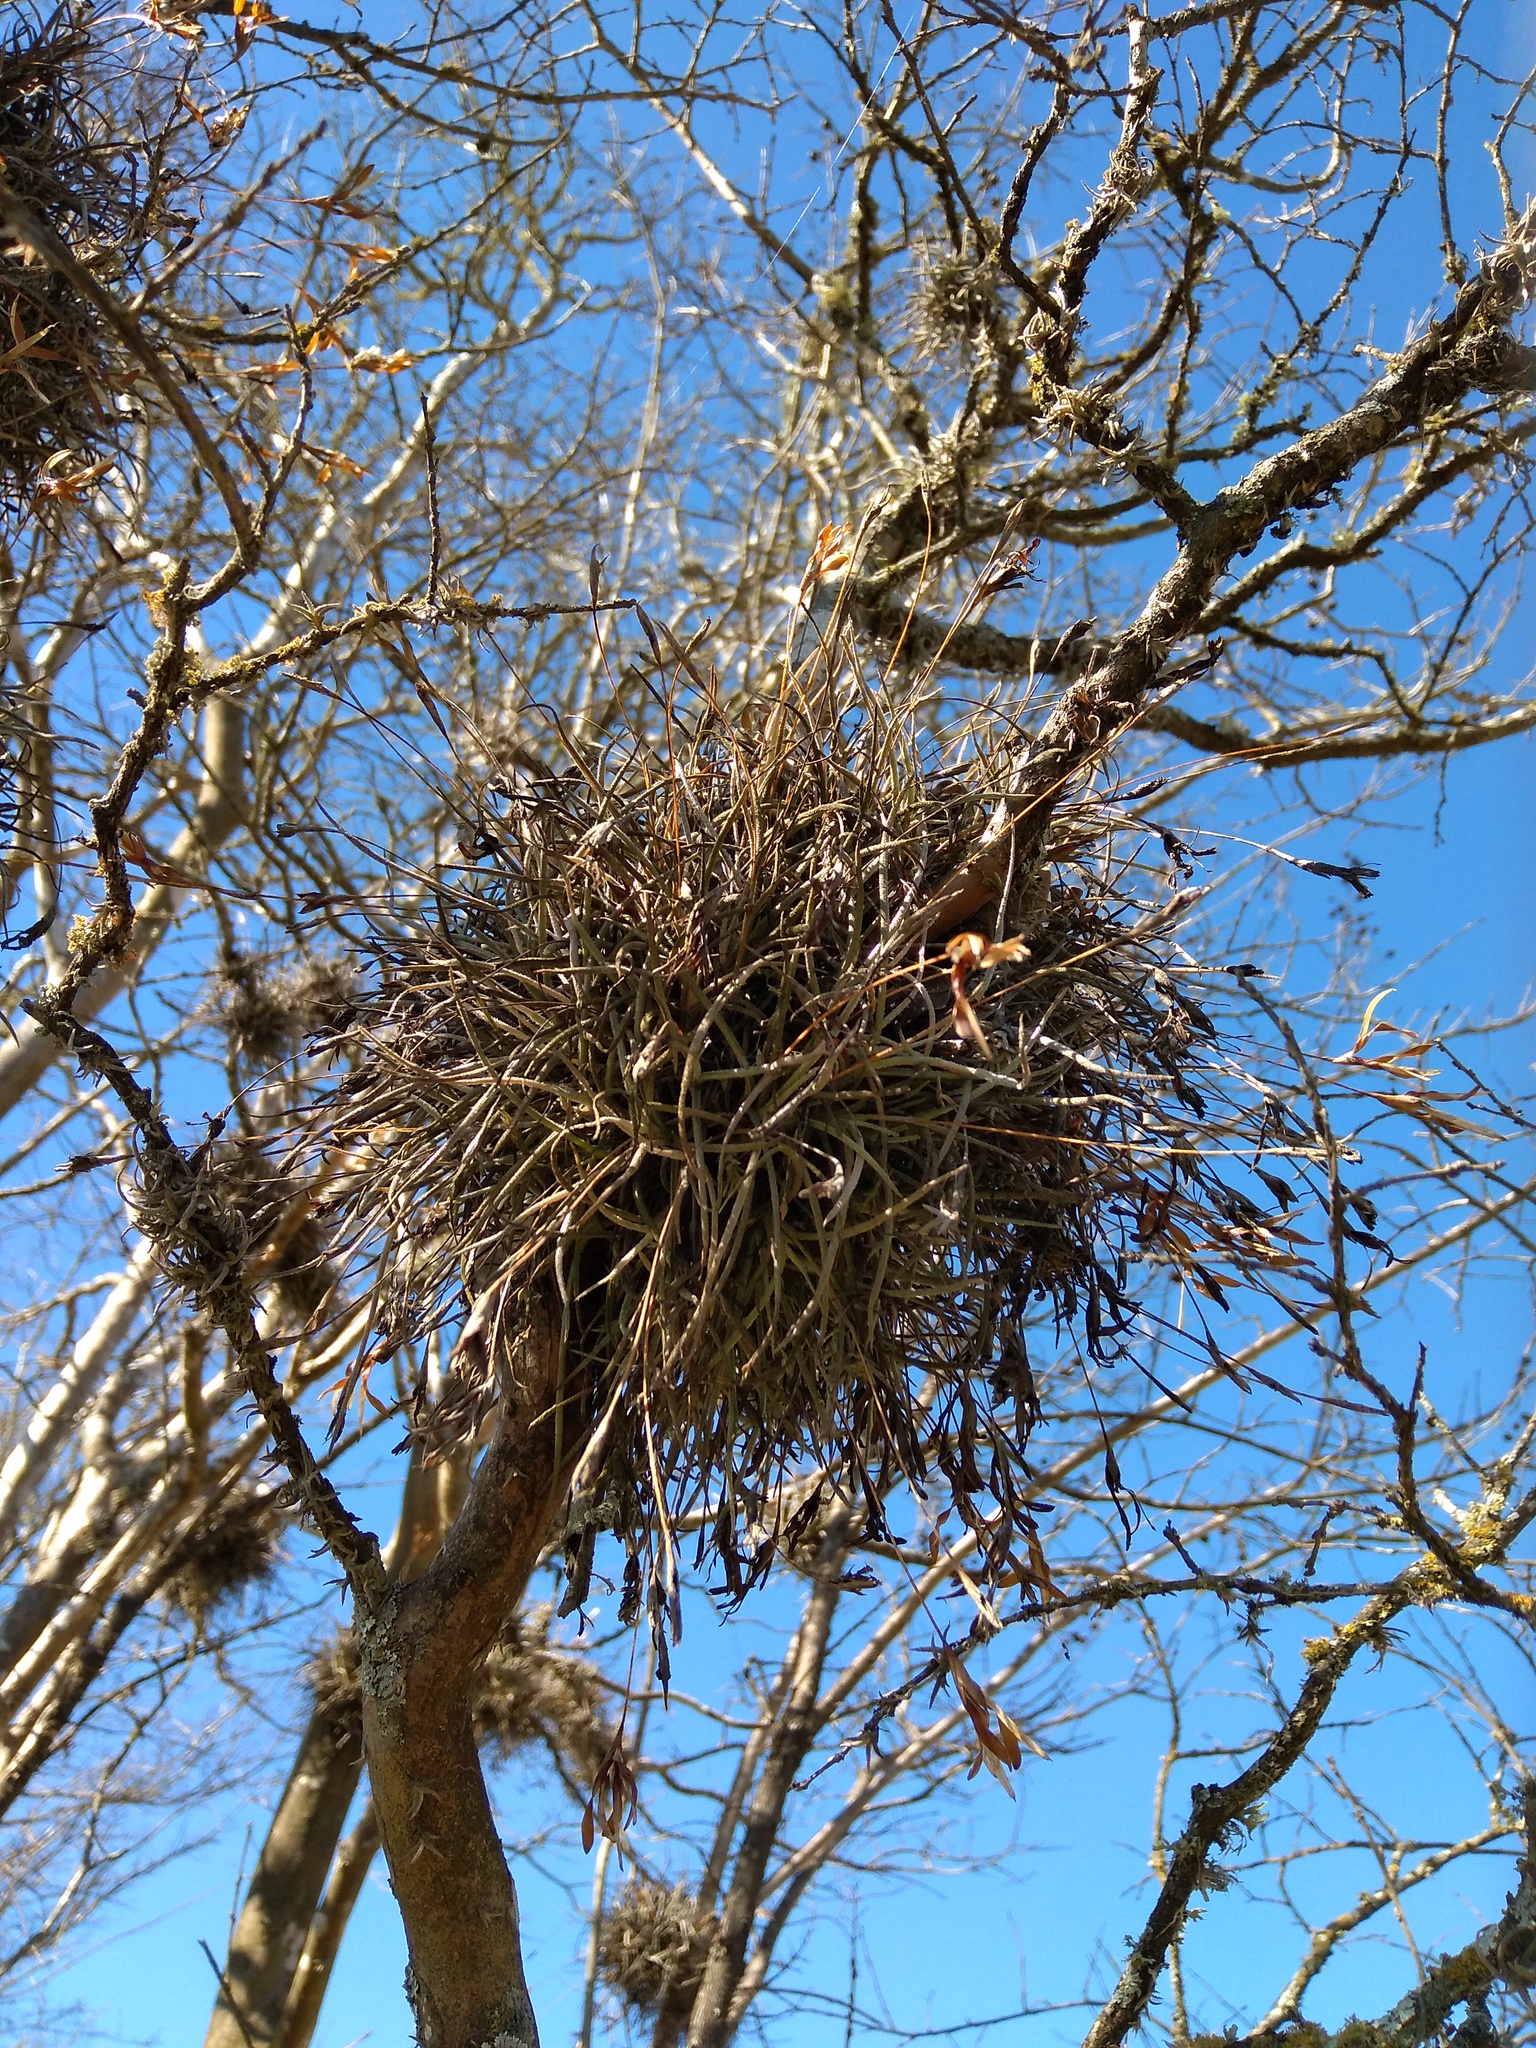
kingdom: Plantae
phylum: Tracheophyta
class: Liliopsida
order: Poales
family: Bromeliaceae
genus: Tillandsia
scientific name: Tillandsia recurvata
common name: Small ballmoss
